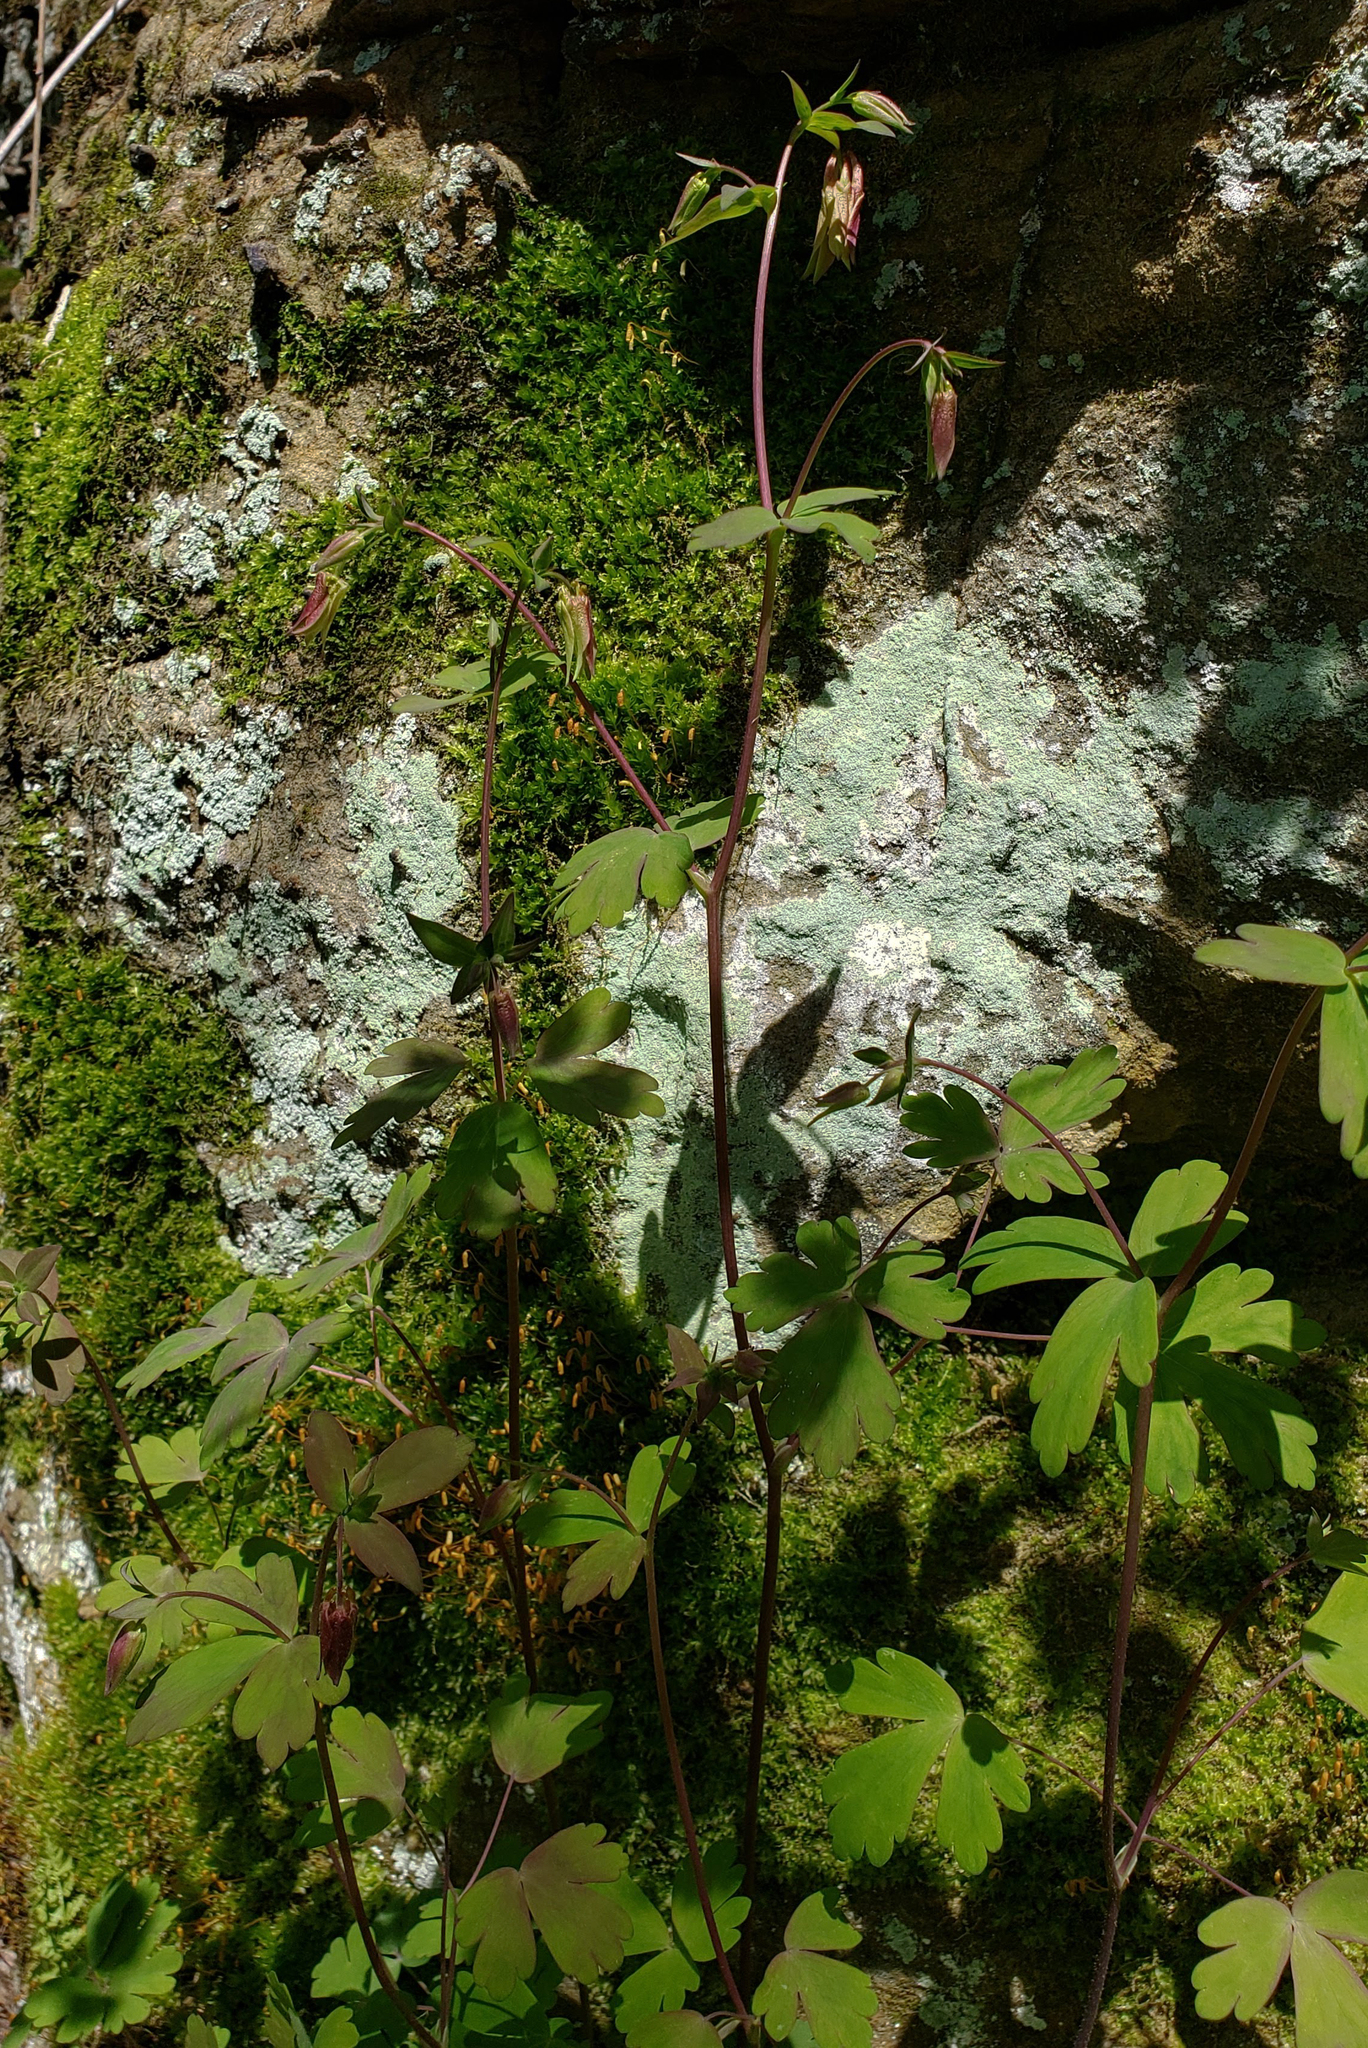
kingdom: Plantae
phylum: Tracheophyta
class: Magnoliopsida
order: Ranunculales
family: Ranunculaceae
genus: Aquilegia
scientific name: Aquilegia canadensis
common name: American columbine
